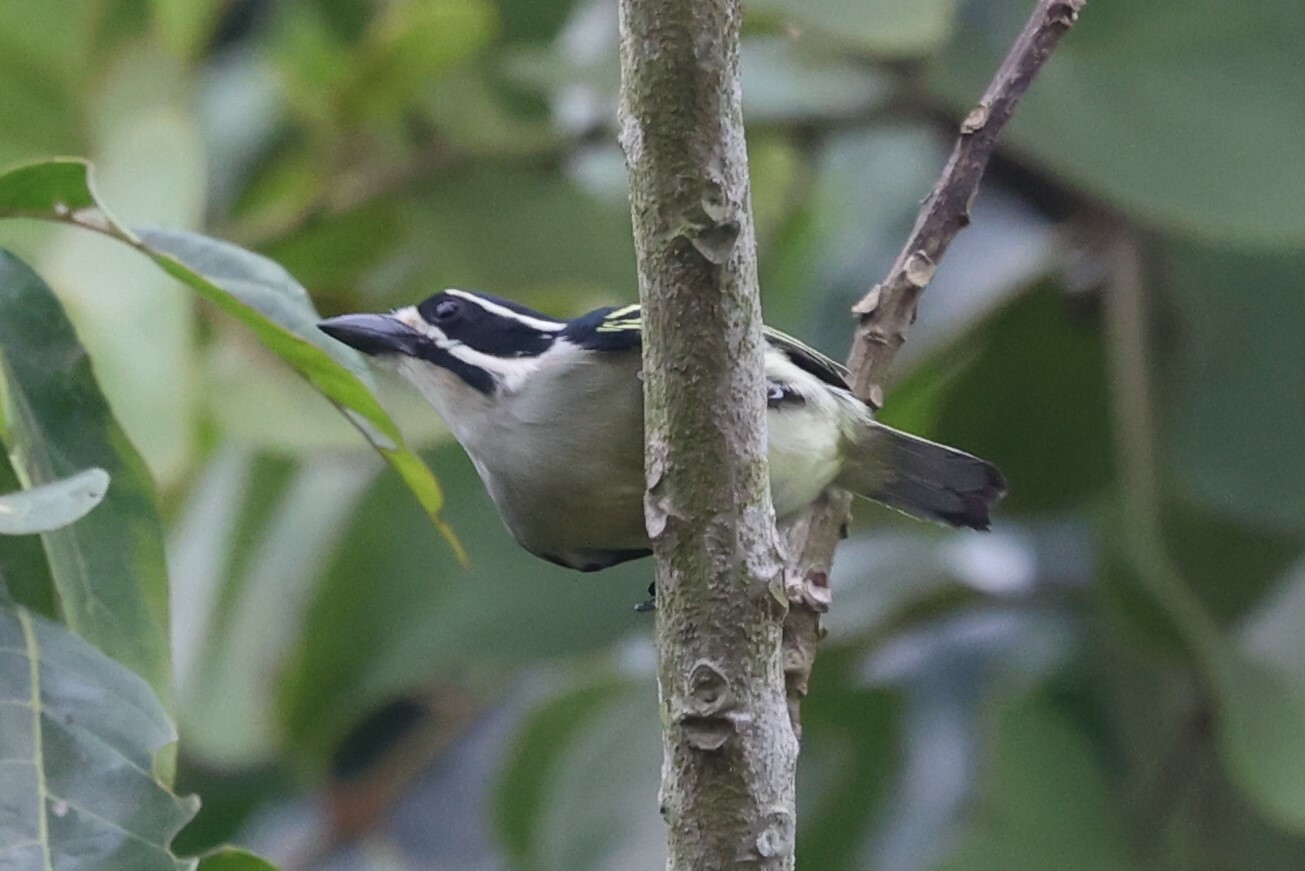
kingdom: Animalia
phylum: Chordata
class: Aves
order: Piciformes
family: Lybiidae
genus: Pogoniulus
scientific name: Pogoniulus bilineatus
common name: Yellow-rumped tinkerbird
